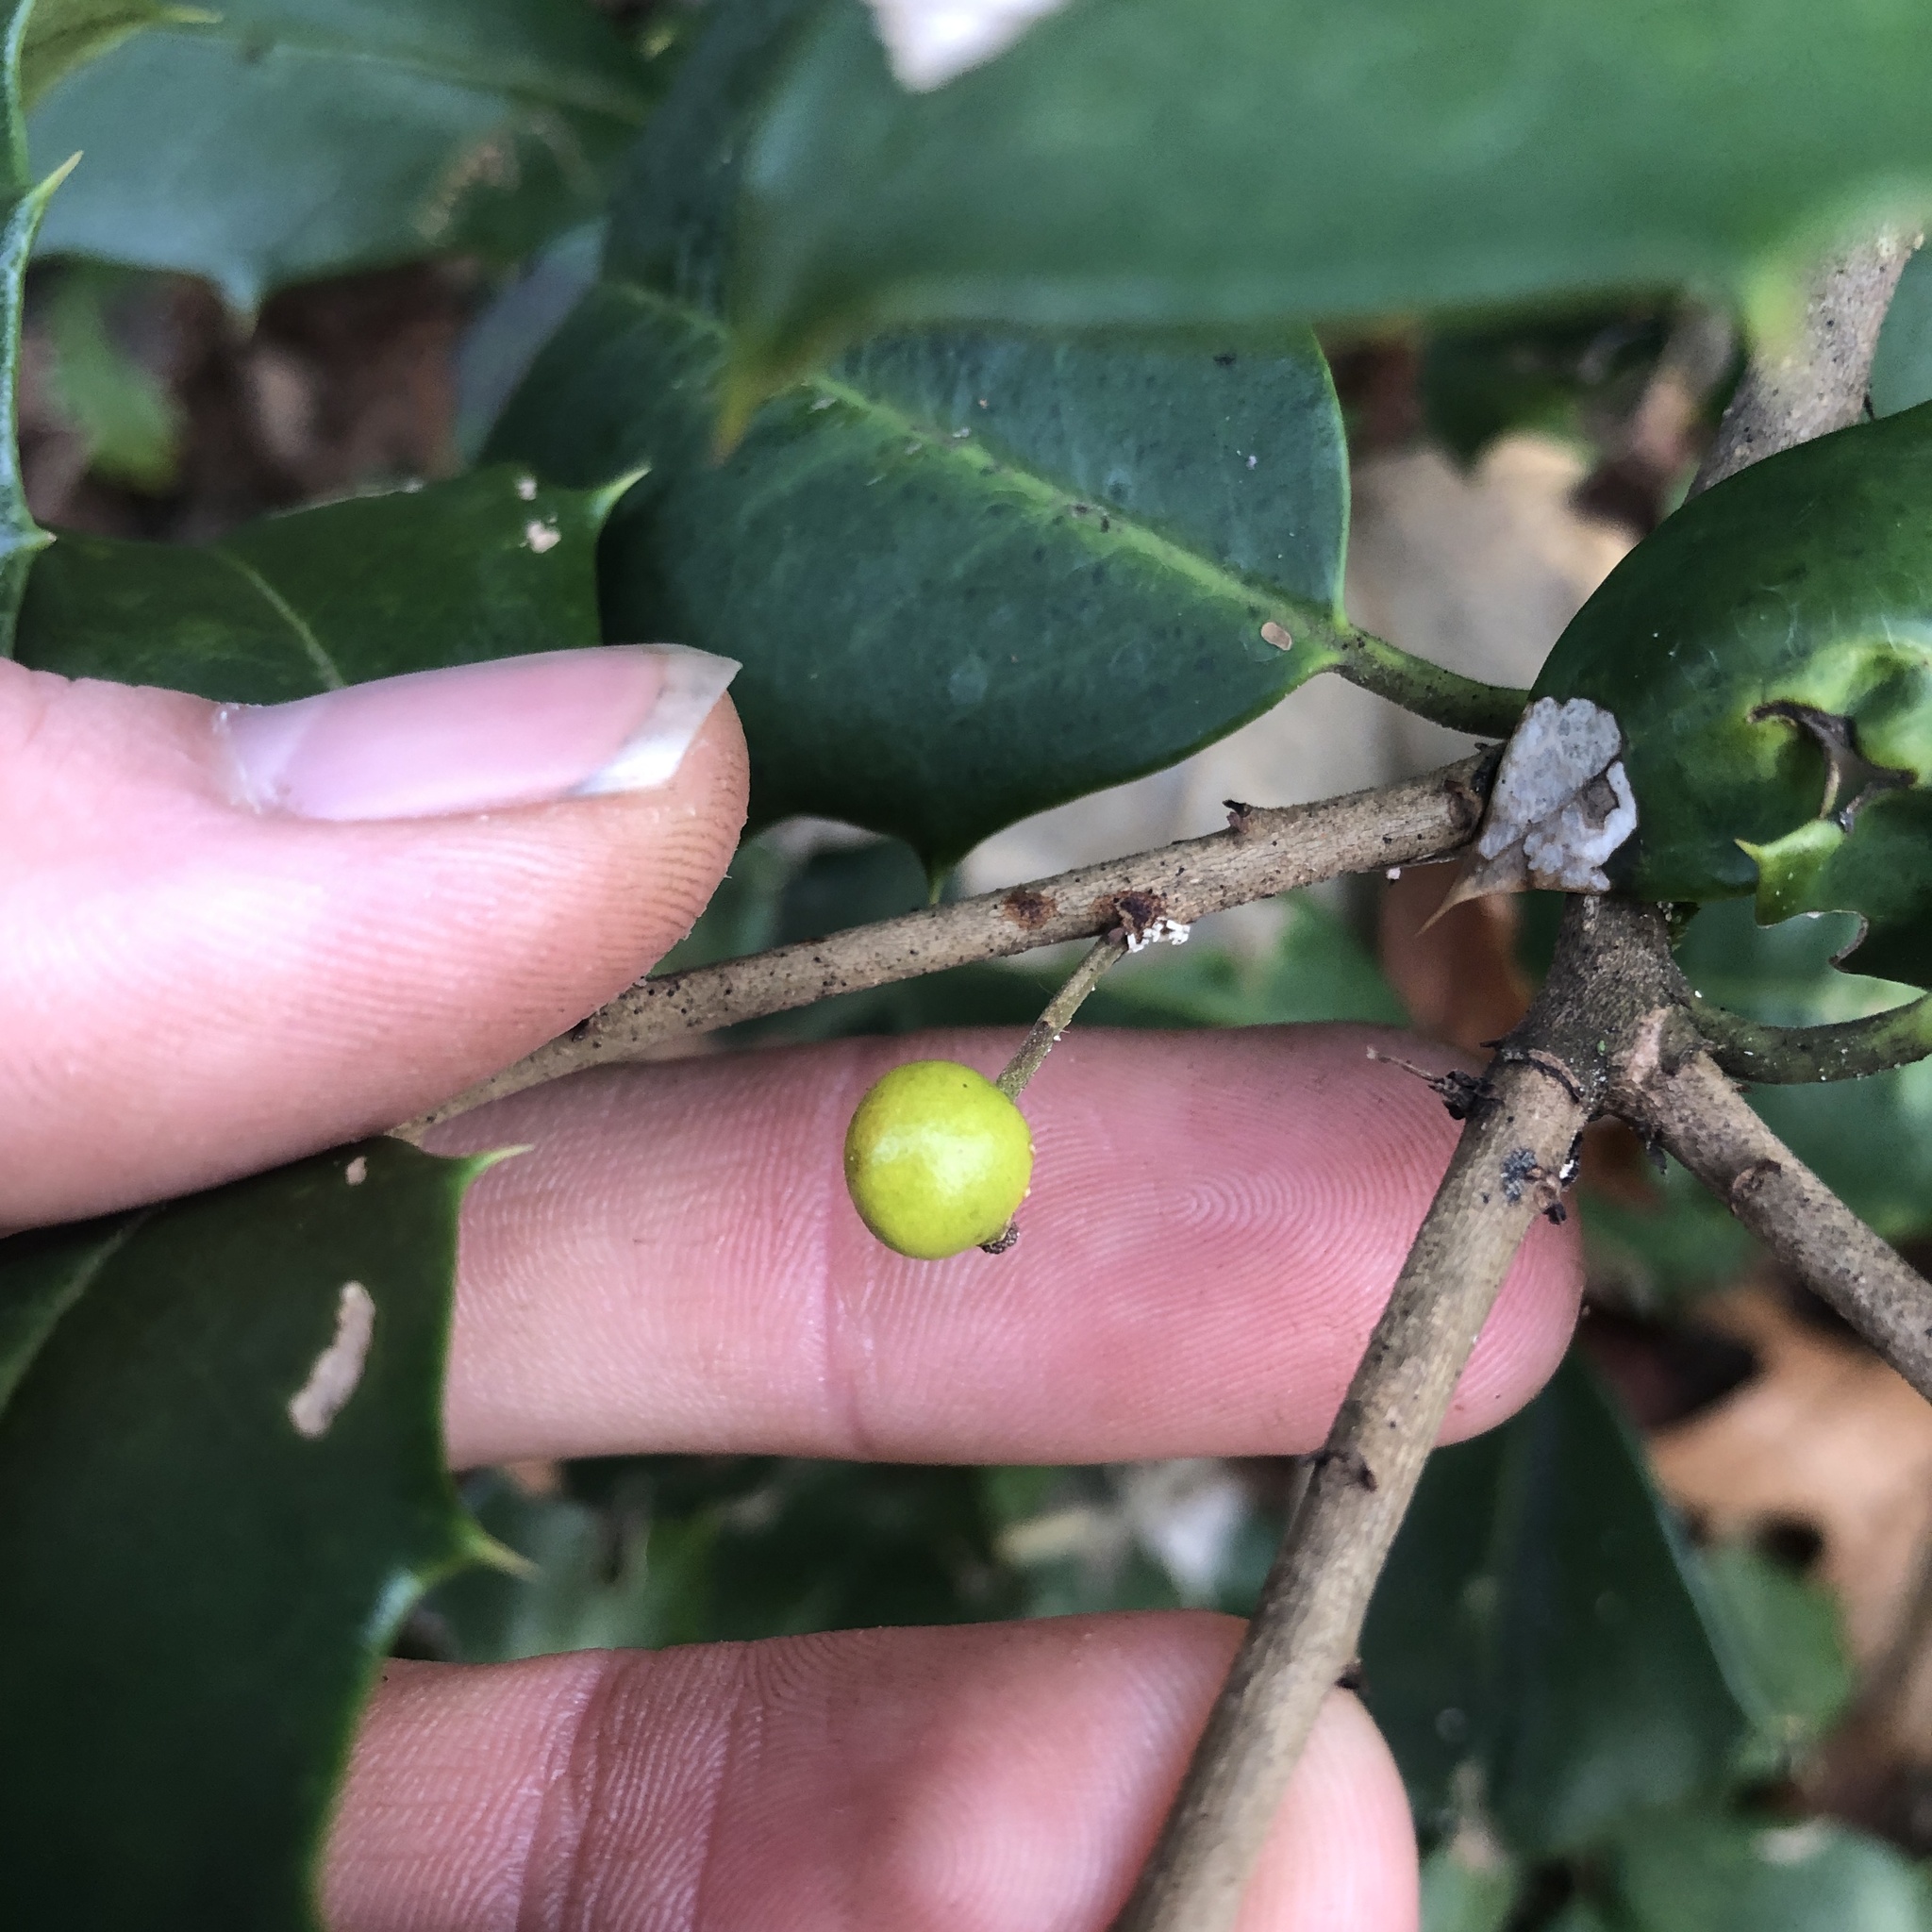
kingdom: Animalia
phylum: Arthropoda
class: Insecta
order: Diptera
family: Cecidomyiidae
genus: Asphondylia
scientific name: Asphondylia ilicicola
